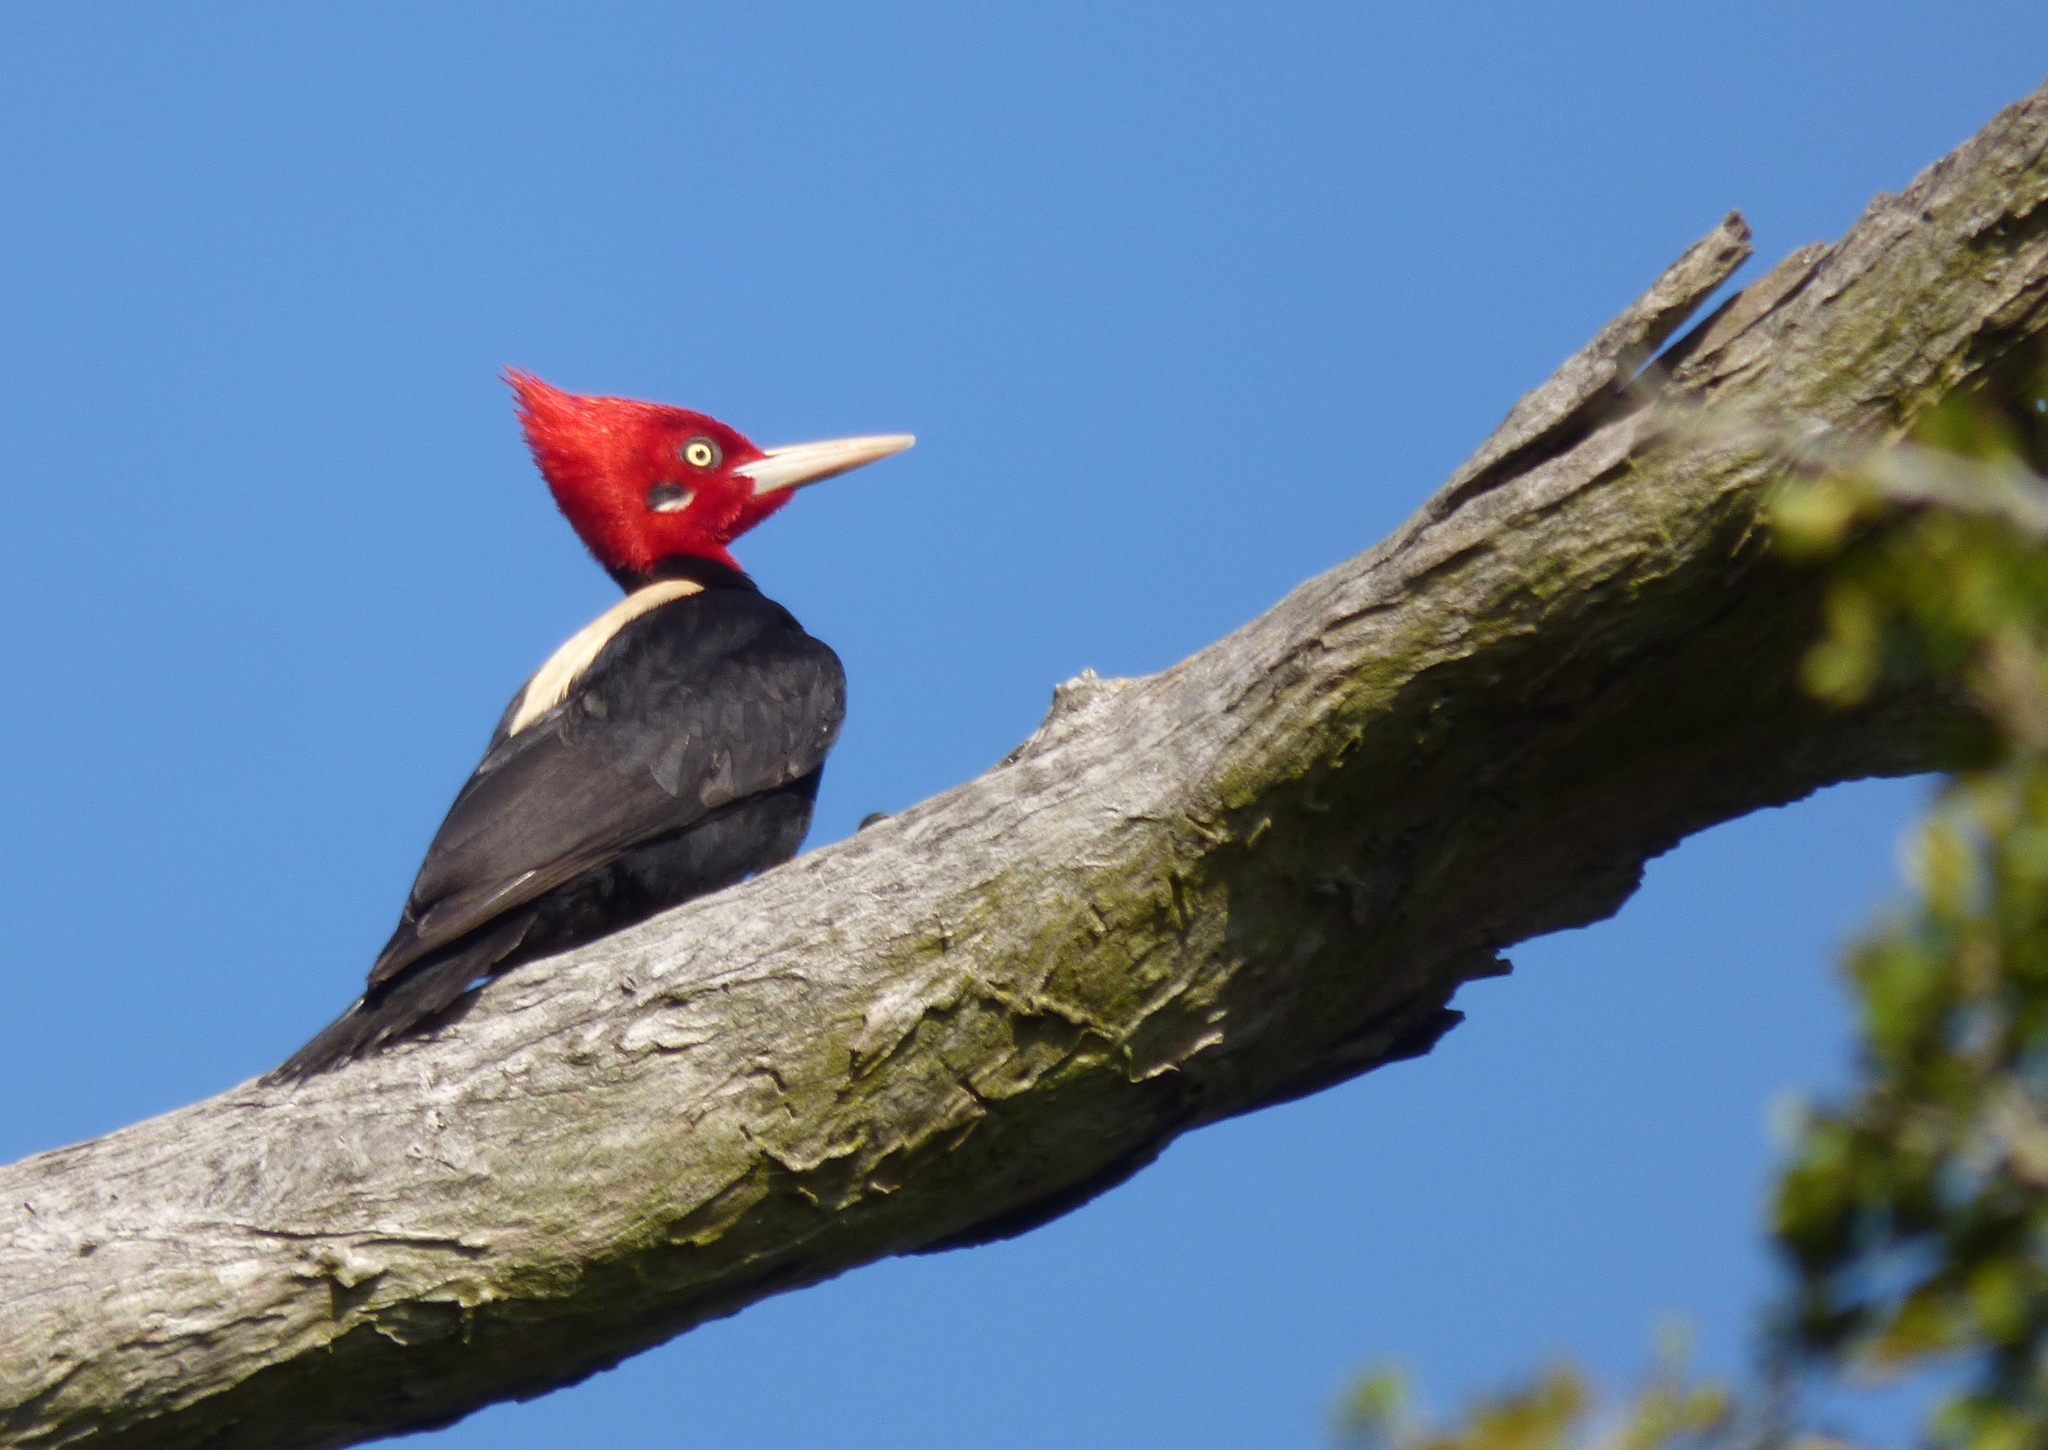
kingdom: Animalia
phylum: Chordata
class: Aves
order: Piciformes
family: Picidae
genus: Campephilus
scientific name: Campephilus leucopogon
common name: Cream-backed woodpecker
